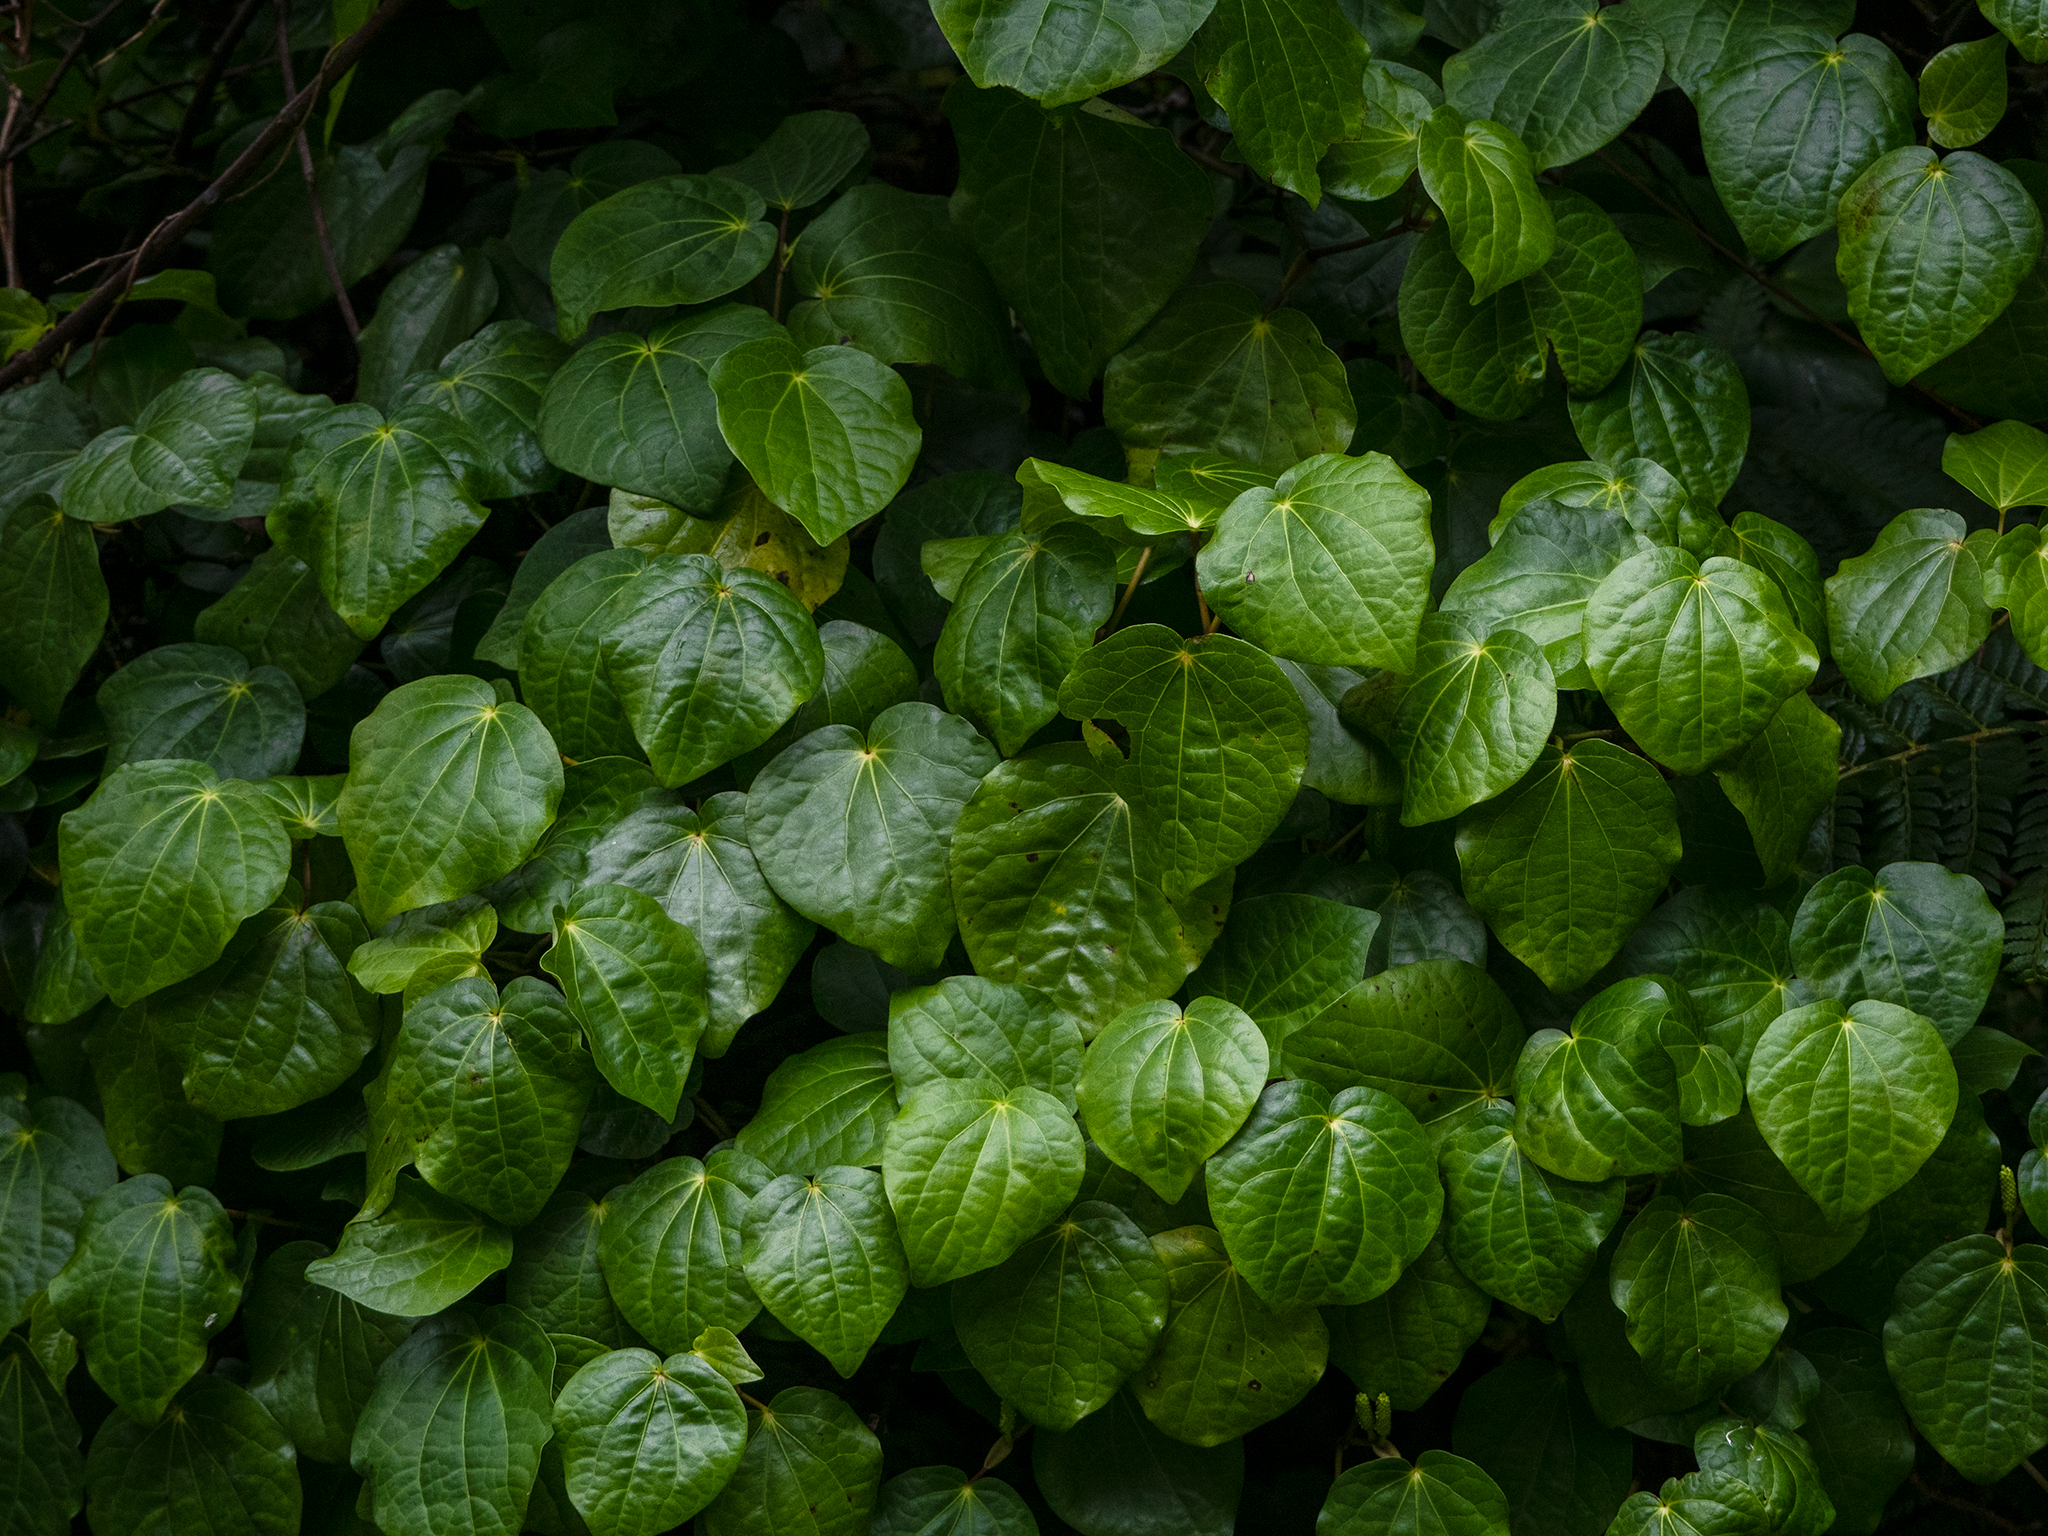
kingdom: Plantae
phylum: Tracheophyta
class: Magnoliopsida
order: Piperales
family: Piperaceae
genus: Macropiper
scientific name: Macropiper excelsum
